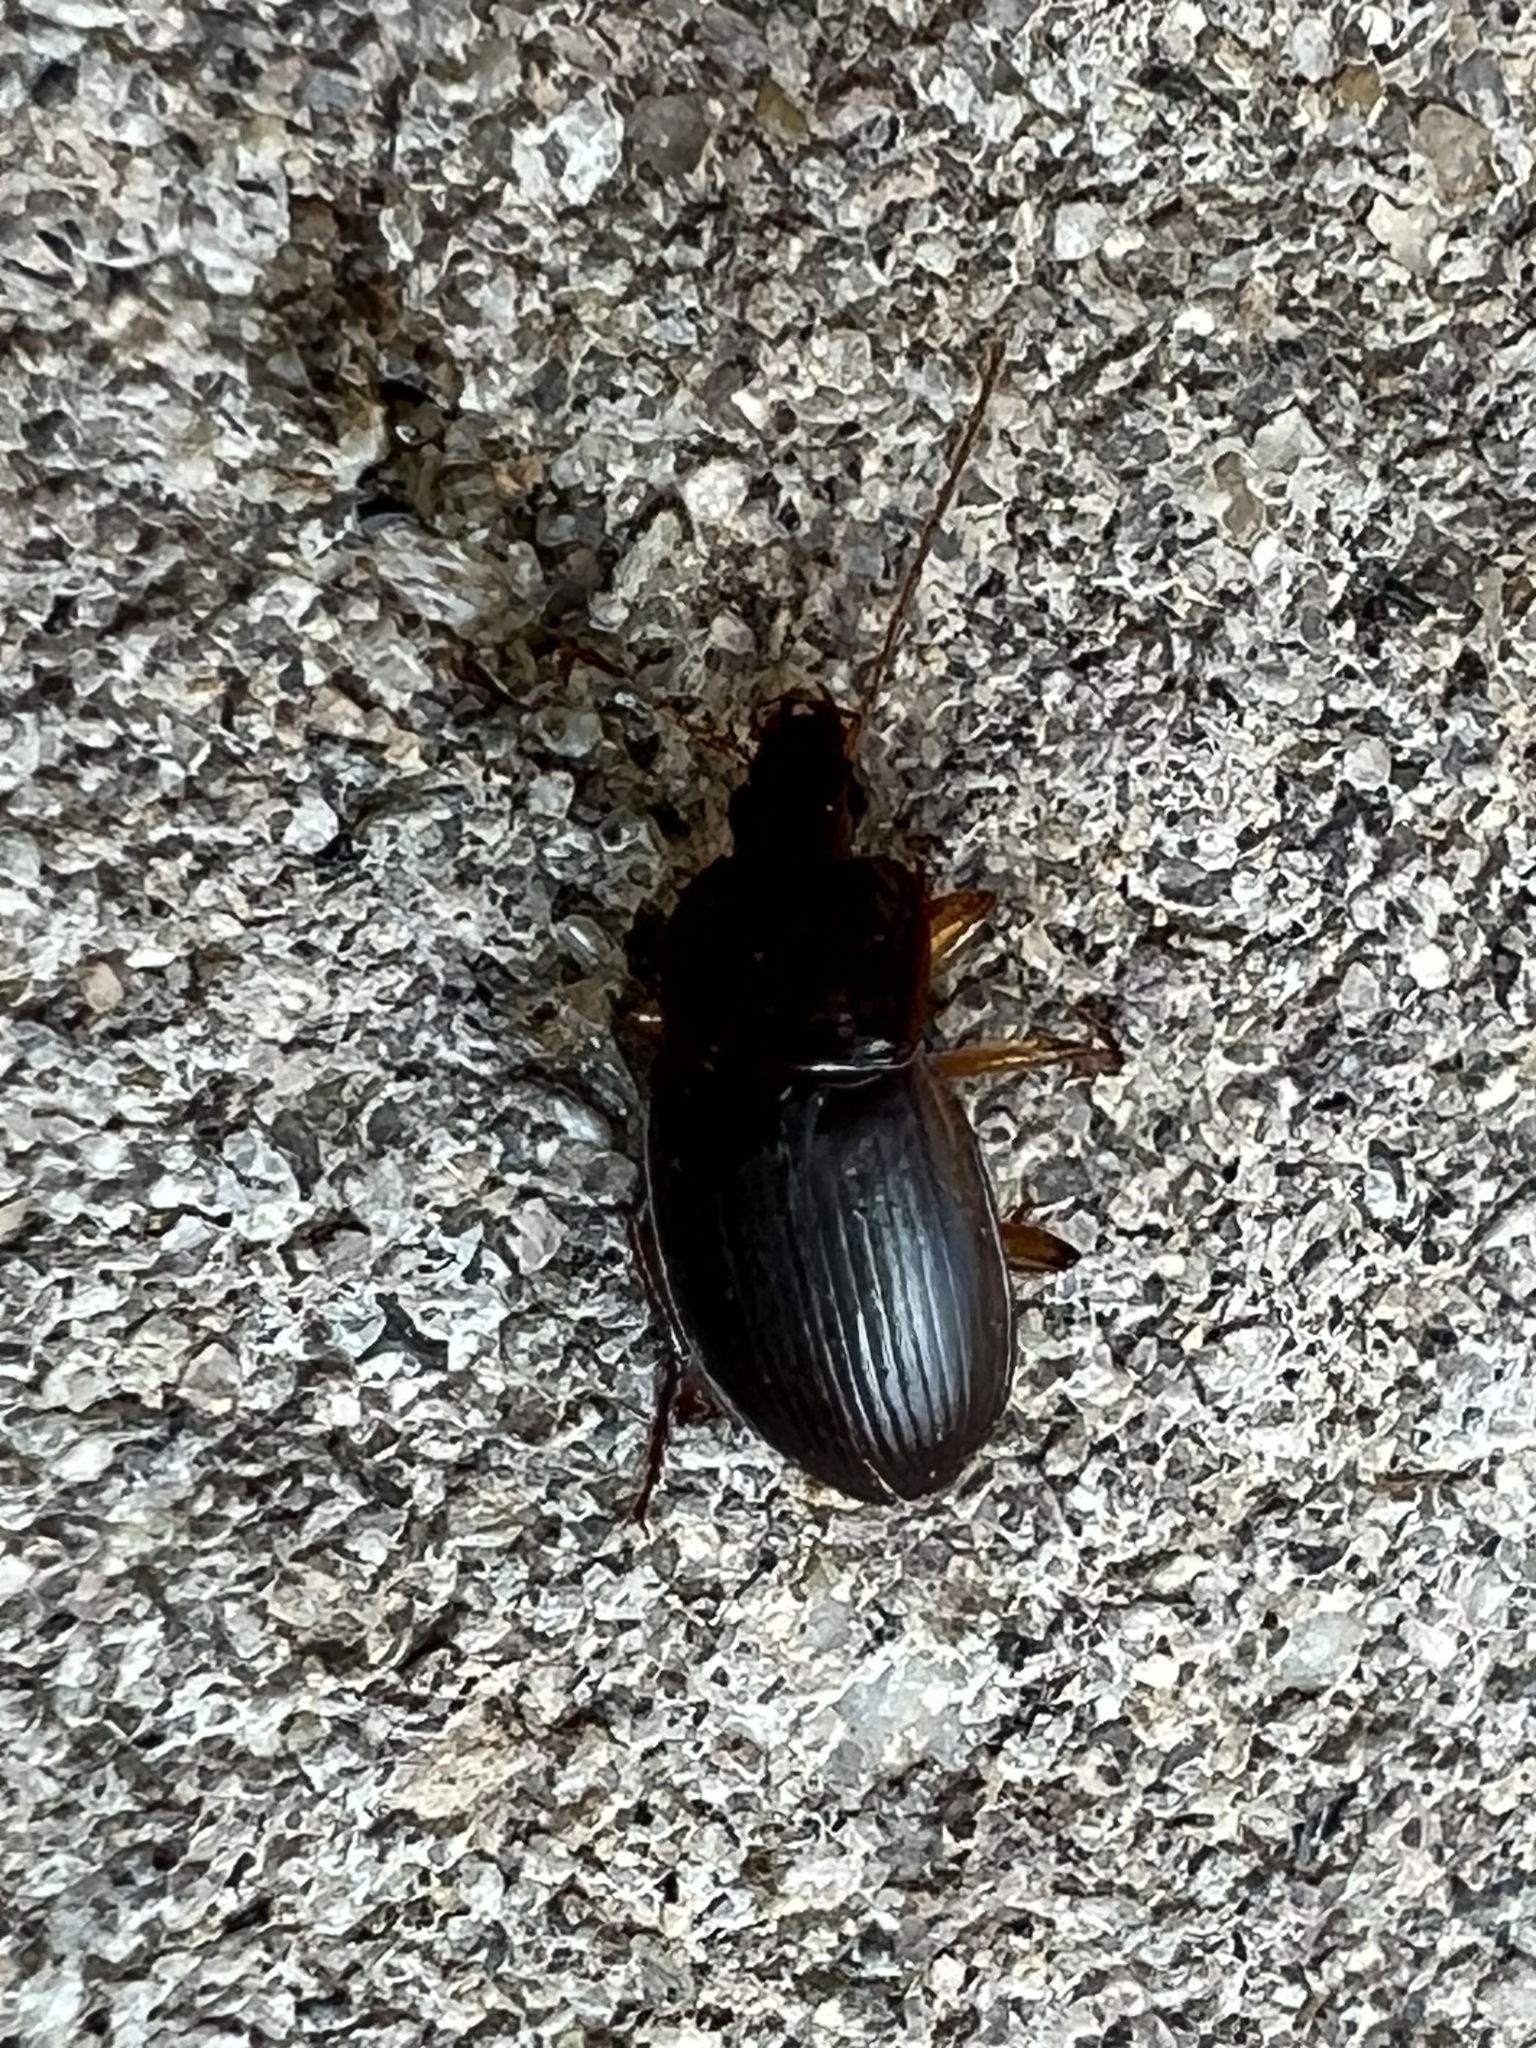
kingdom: Animalia
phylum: Arthropoda
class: Insecta
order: Coleoptera
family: Carabidae
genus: Calathus
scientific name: Calathus ruficollis
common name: Red-collared harp ground beetle
